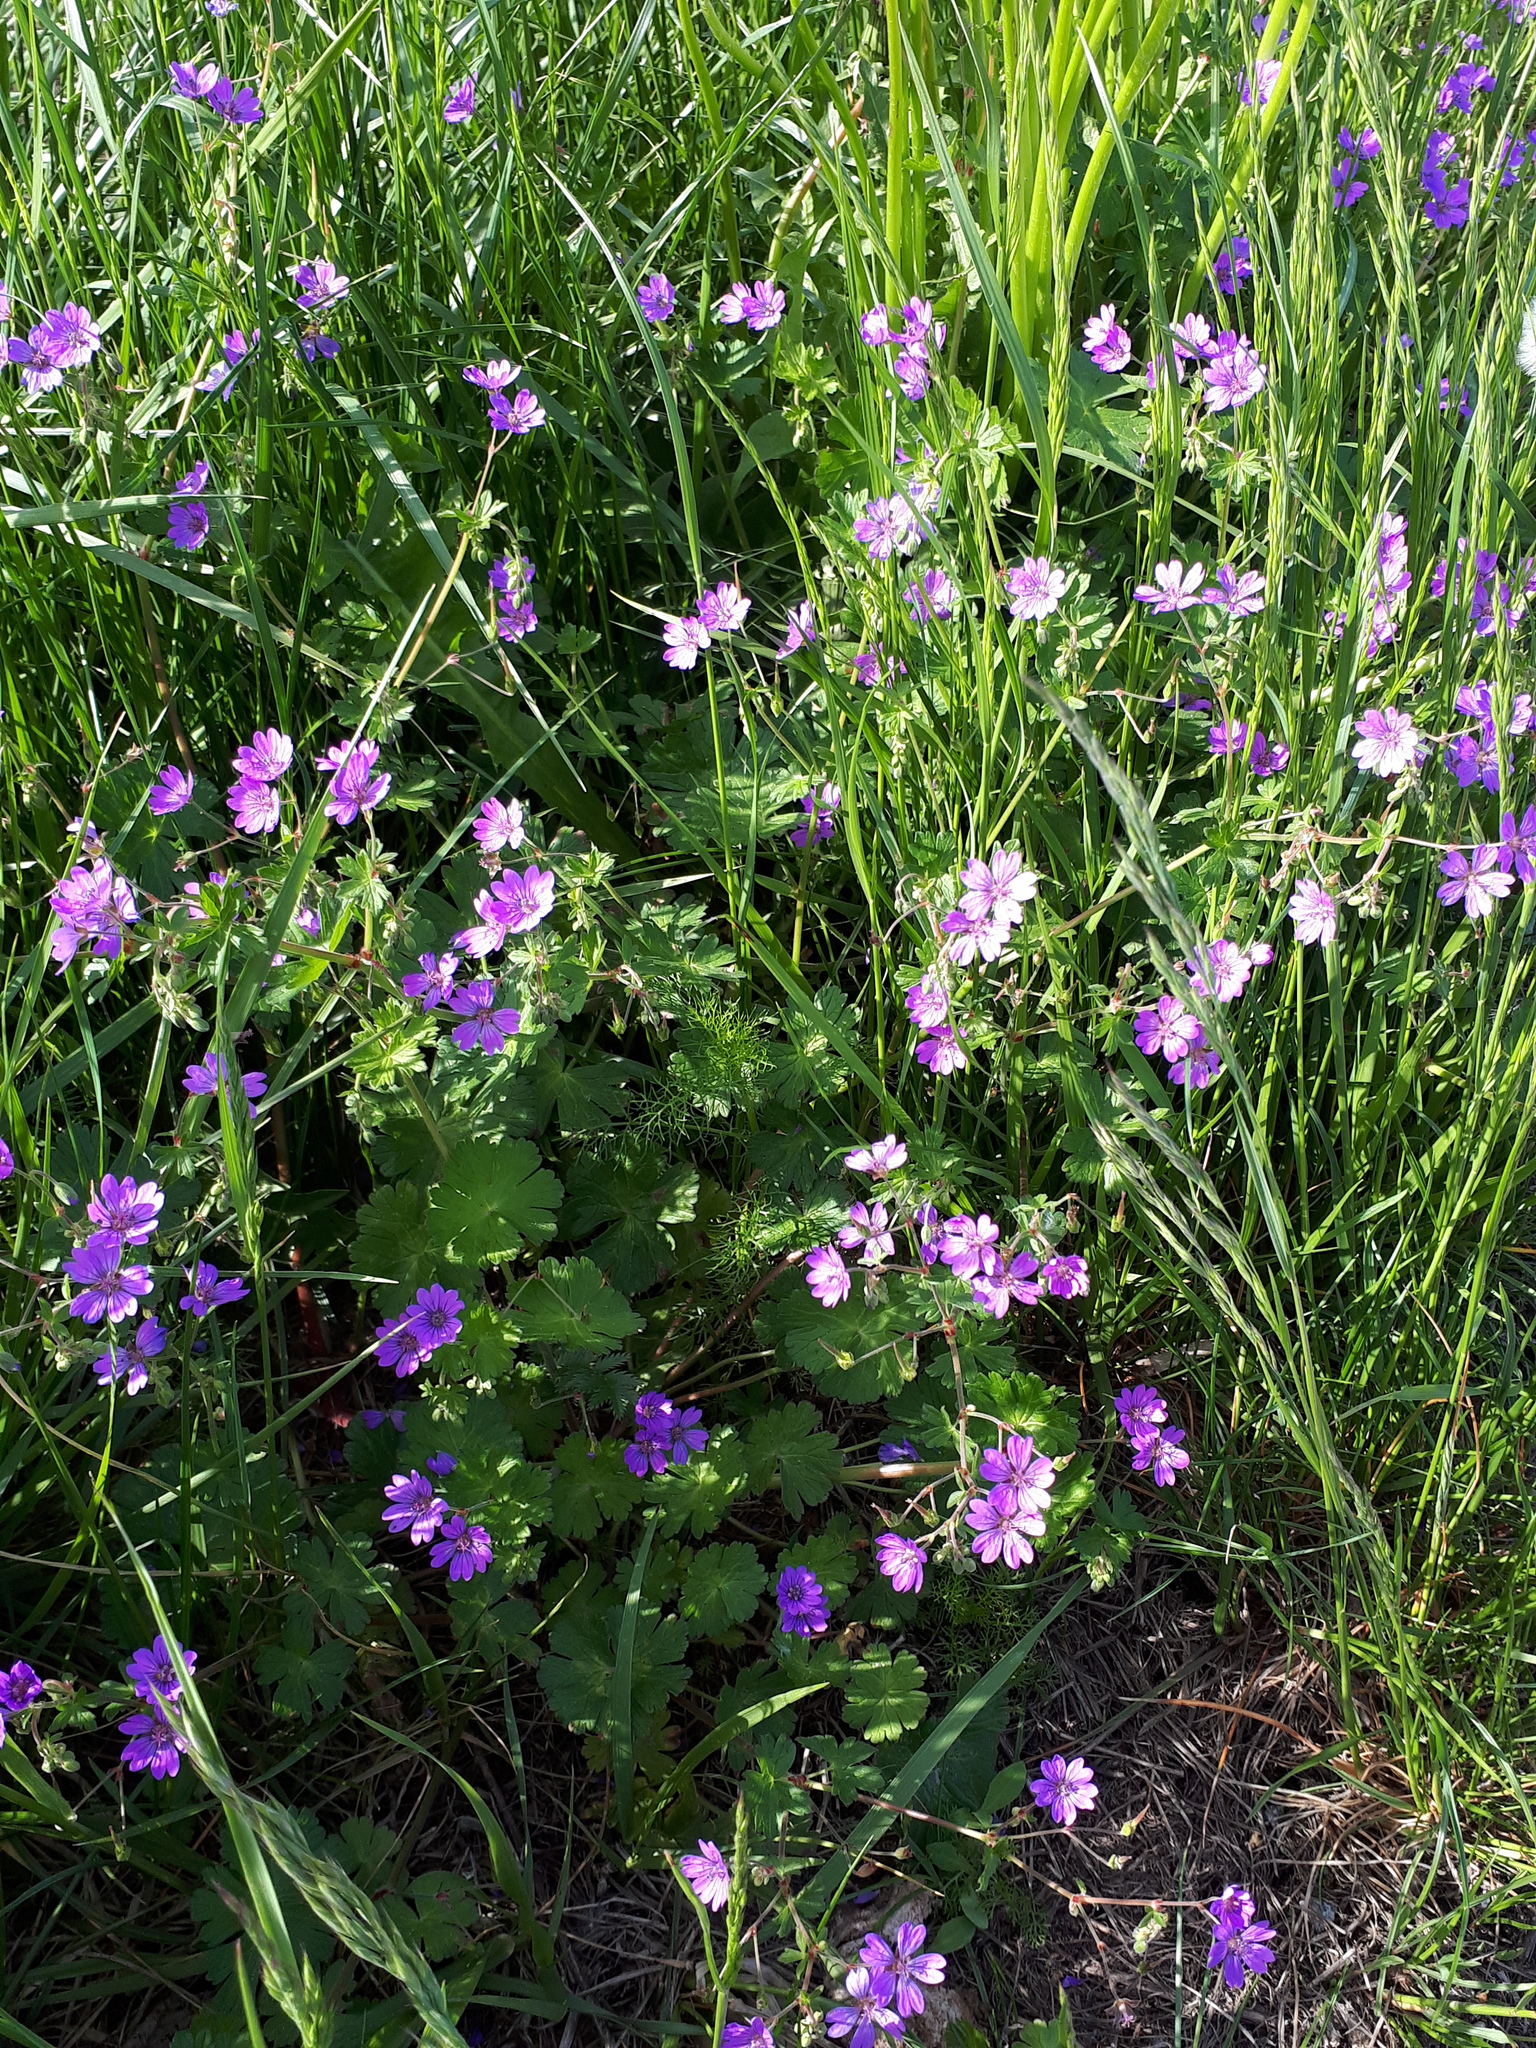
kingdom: Plantae
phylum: Tracheophyta
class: Magnoliopsida
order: Geraniales
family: Geraniaceae
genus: Geranium
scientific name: Geranium pyrenaicum
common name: Hedgerow crane's-bill
